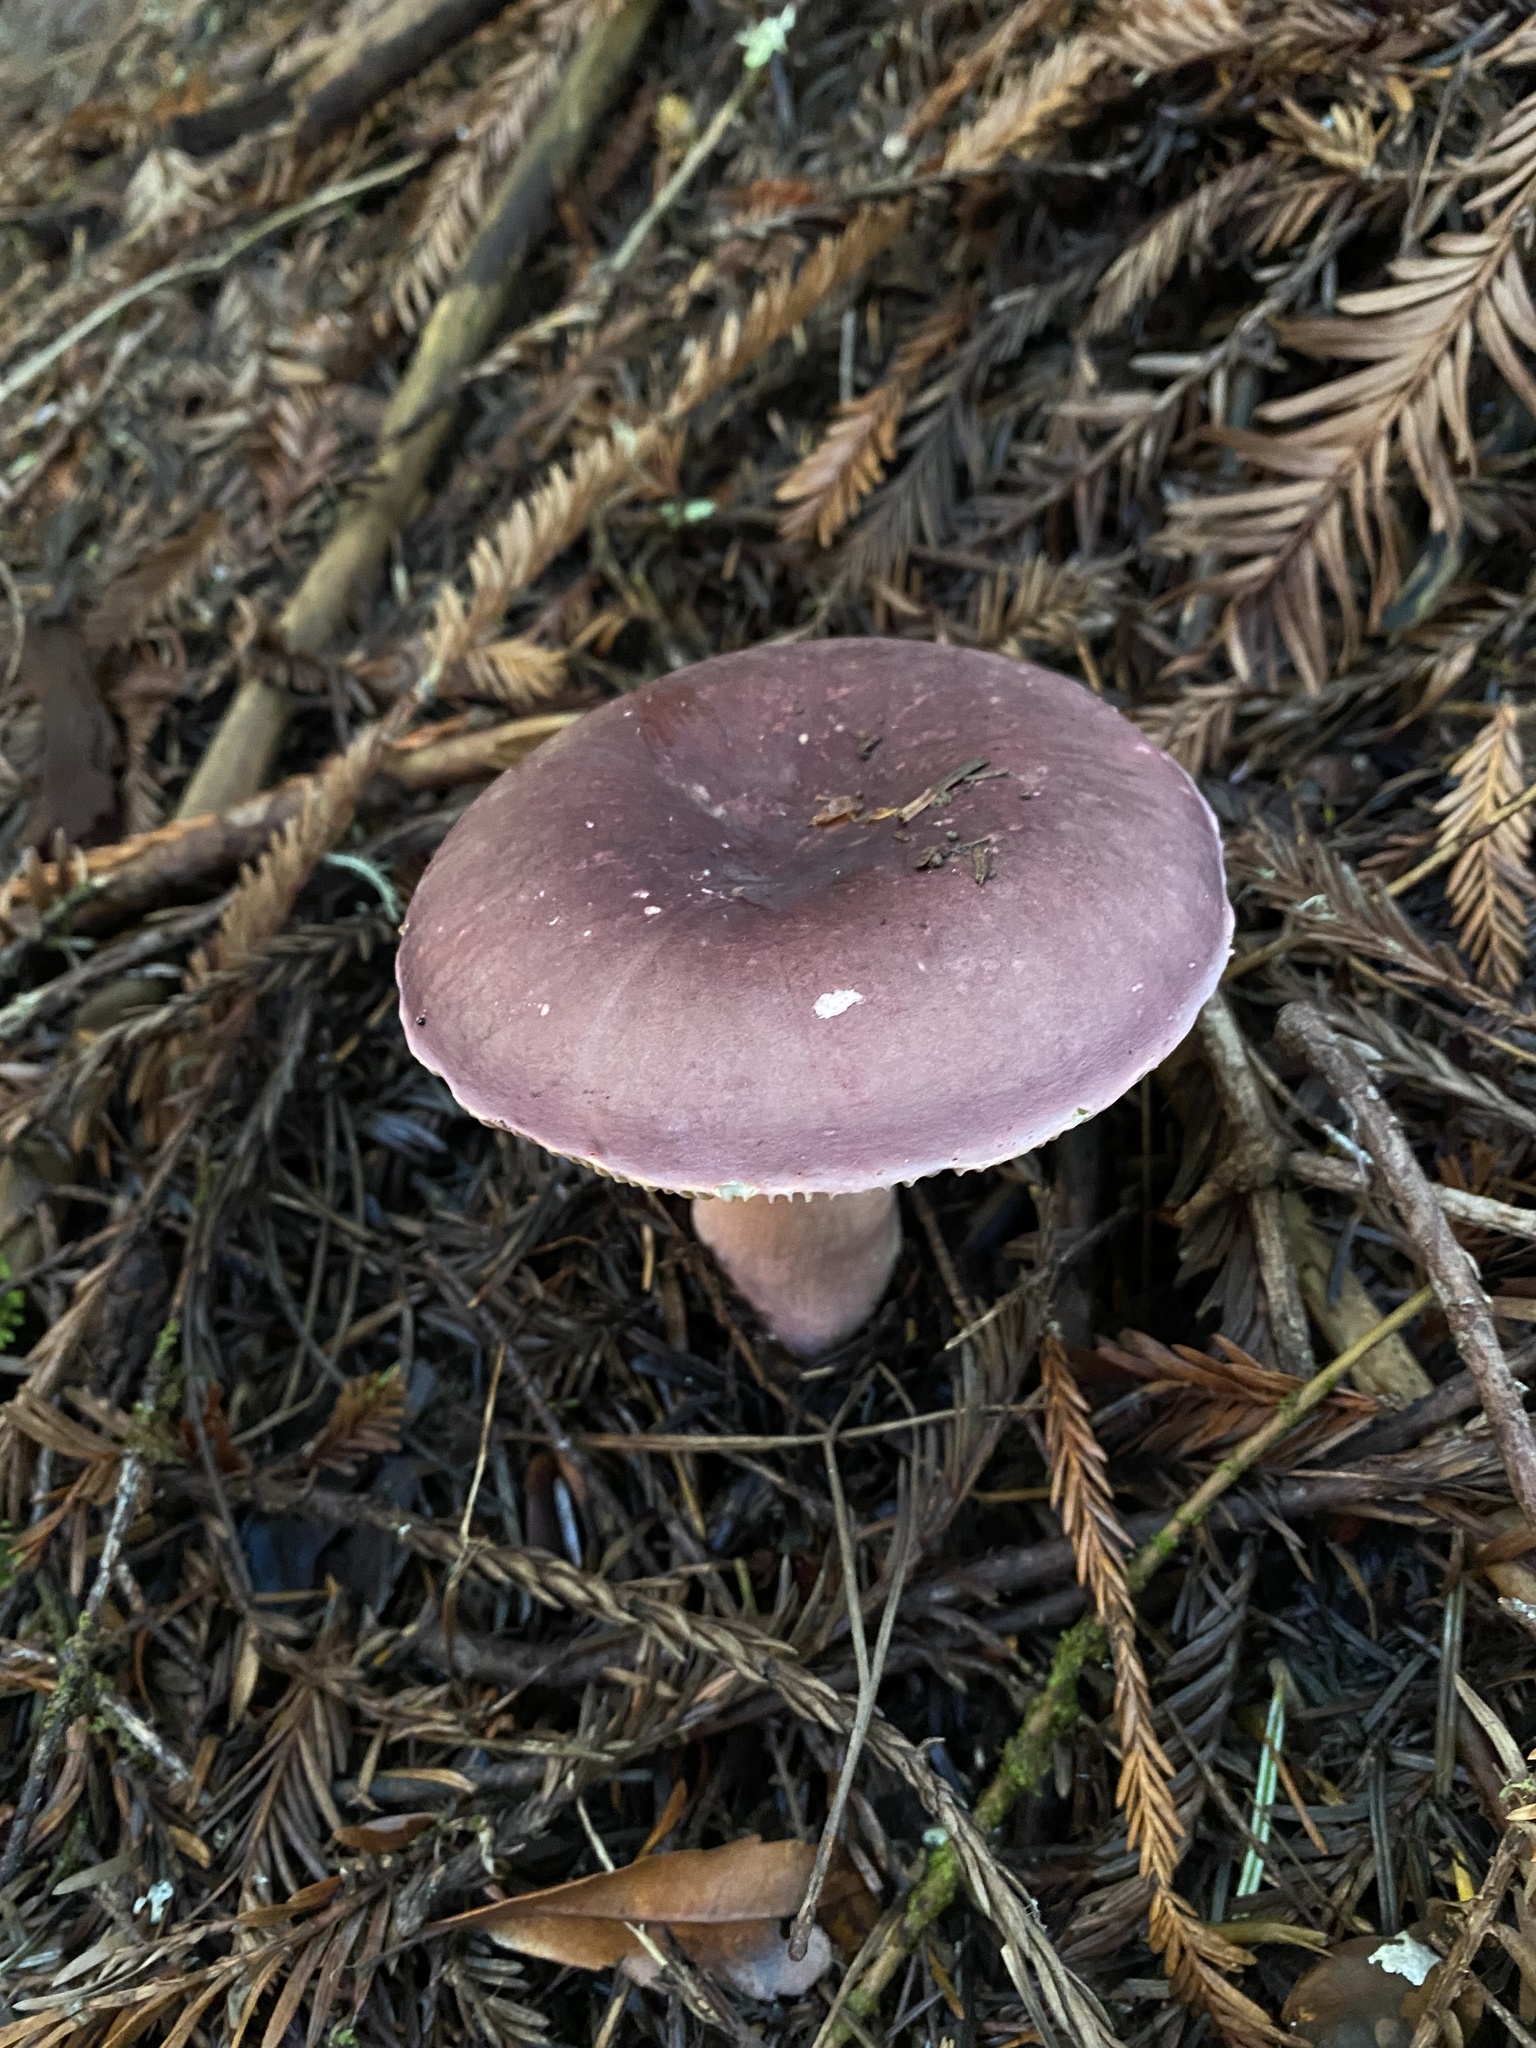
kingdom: Fungi
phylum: Basidiomycota
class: Agaricomycetes
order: Russulales
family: Russulaceae
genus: Russula
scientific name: Russula xerampelina
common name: Crab brittlegill
